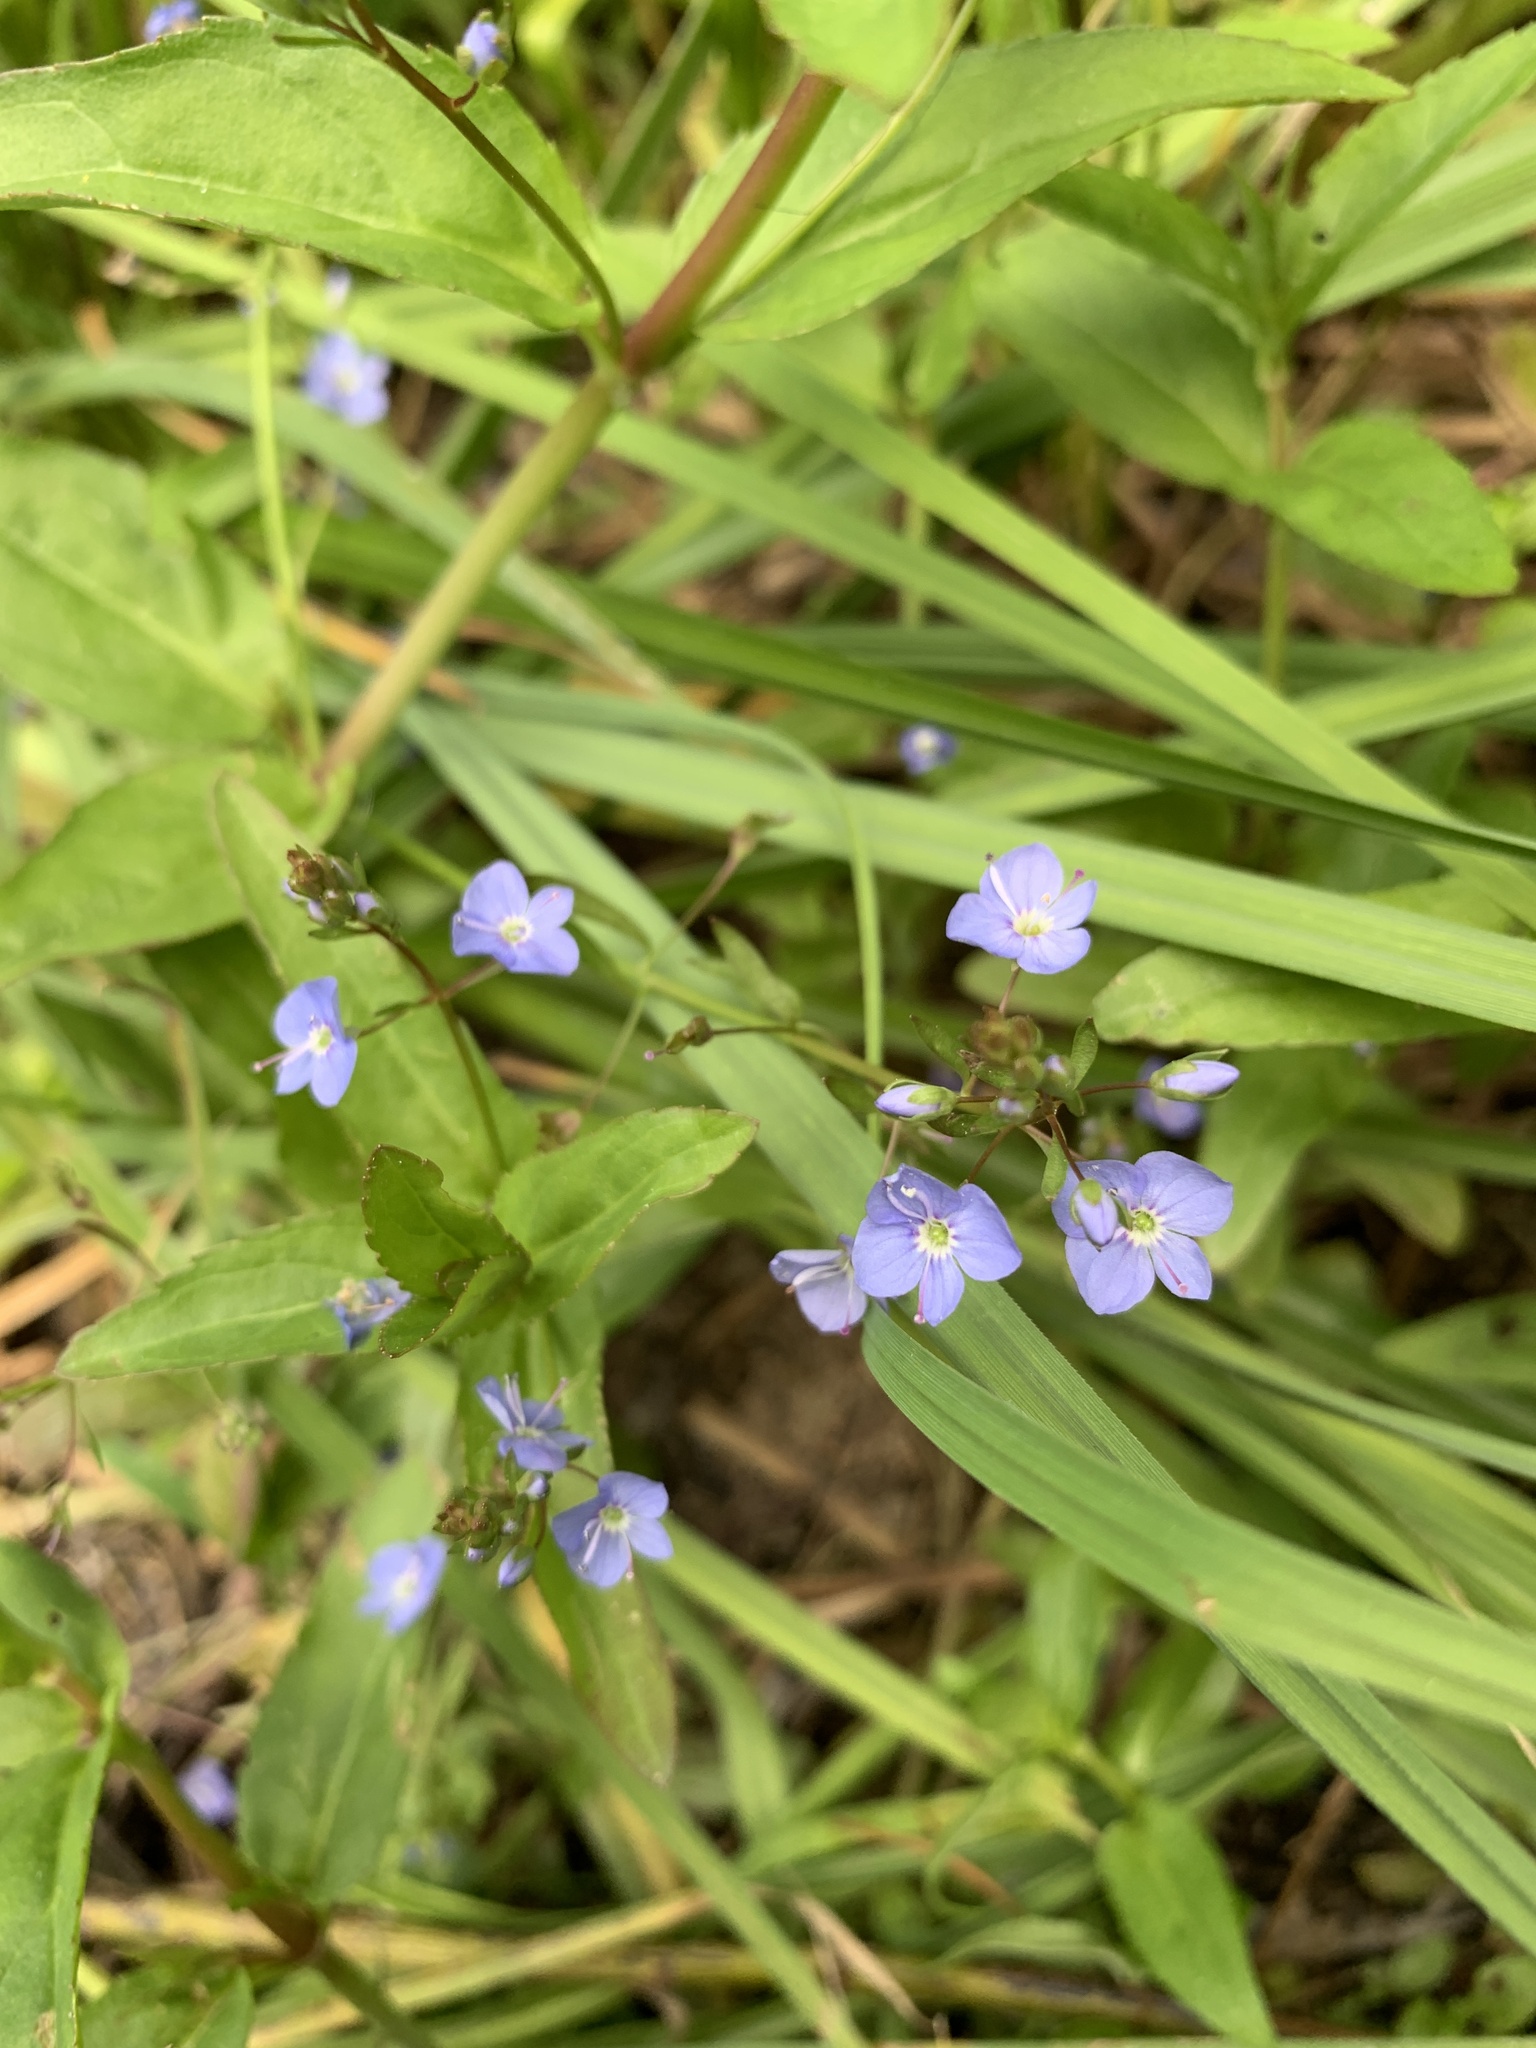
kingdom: Plantae
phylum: Tracheophyta
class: Magnoliopsida
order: Lamiales
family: Plantaginaceae
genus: Veronica
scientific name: Veronica americana
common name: American brooklime
